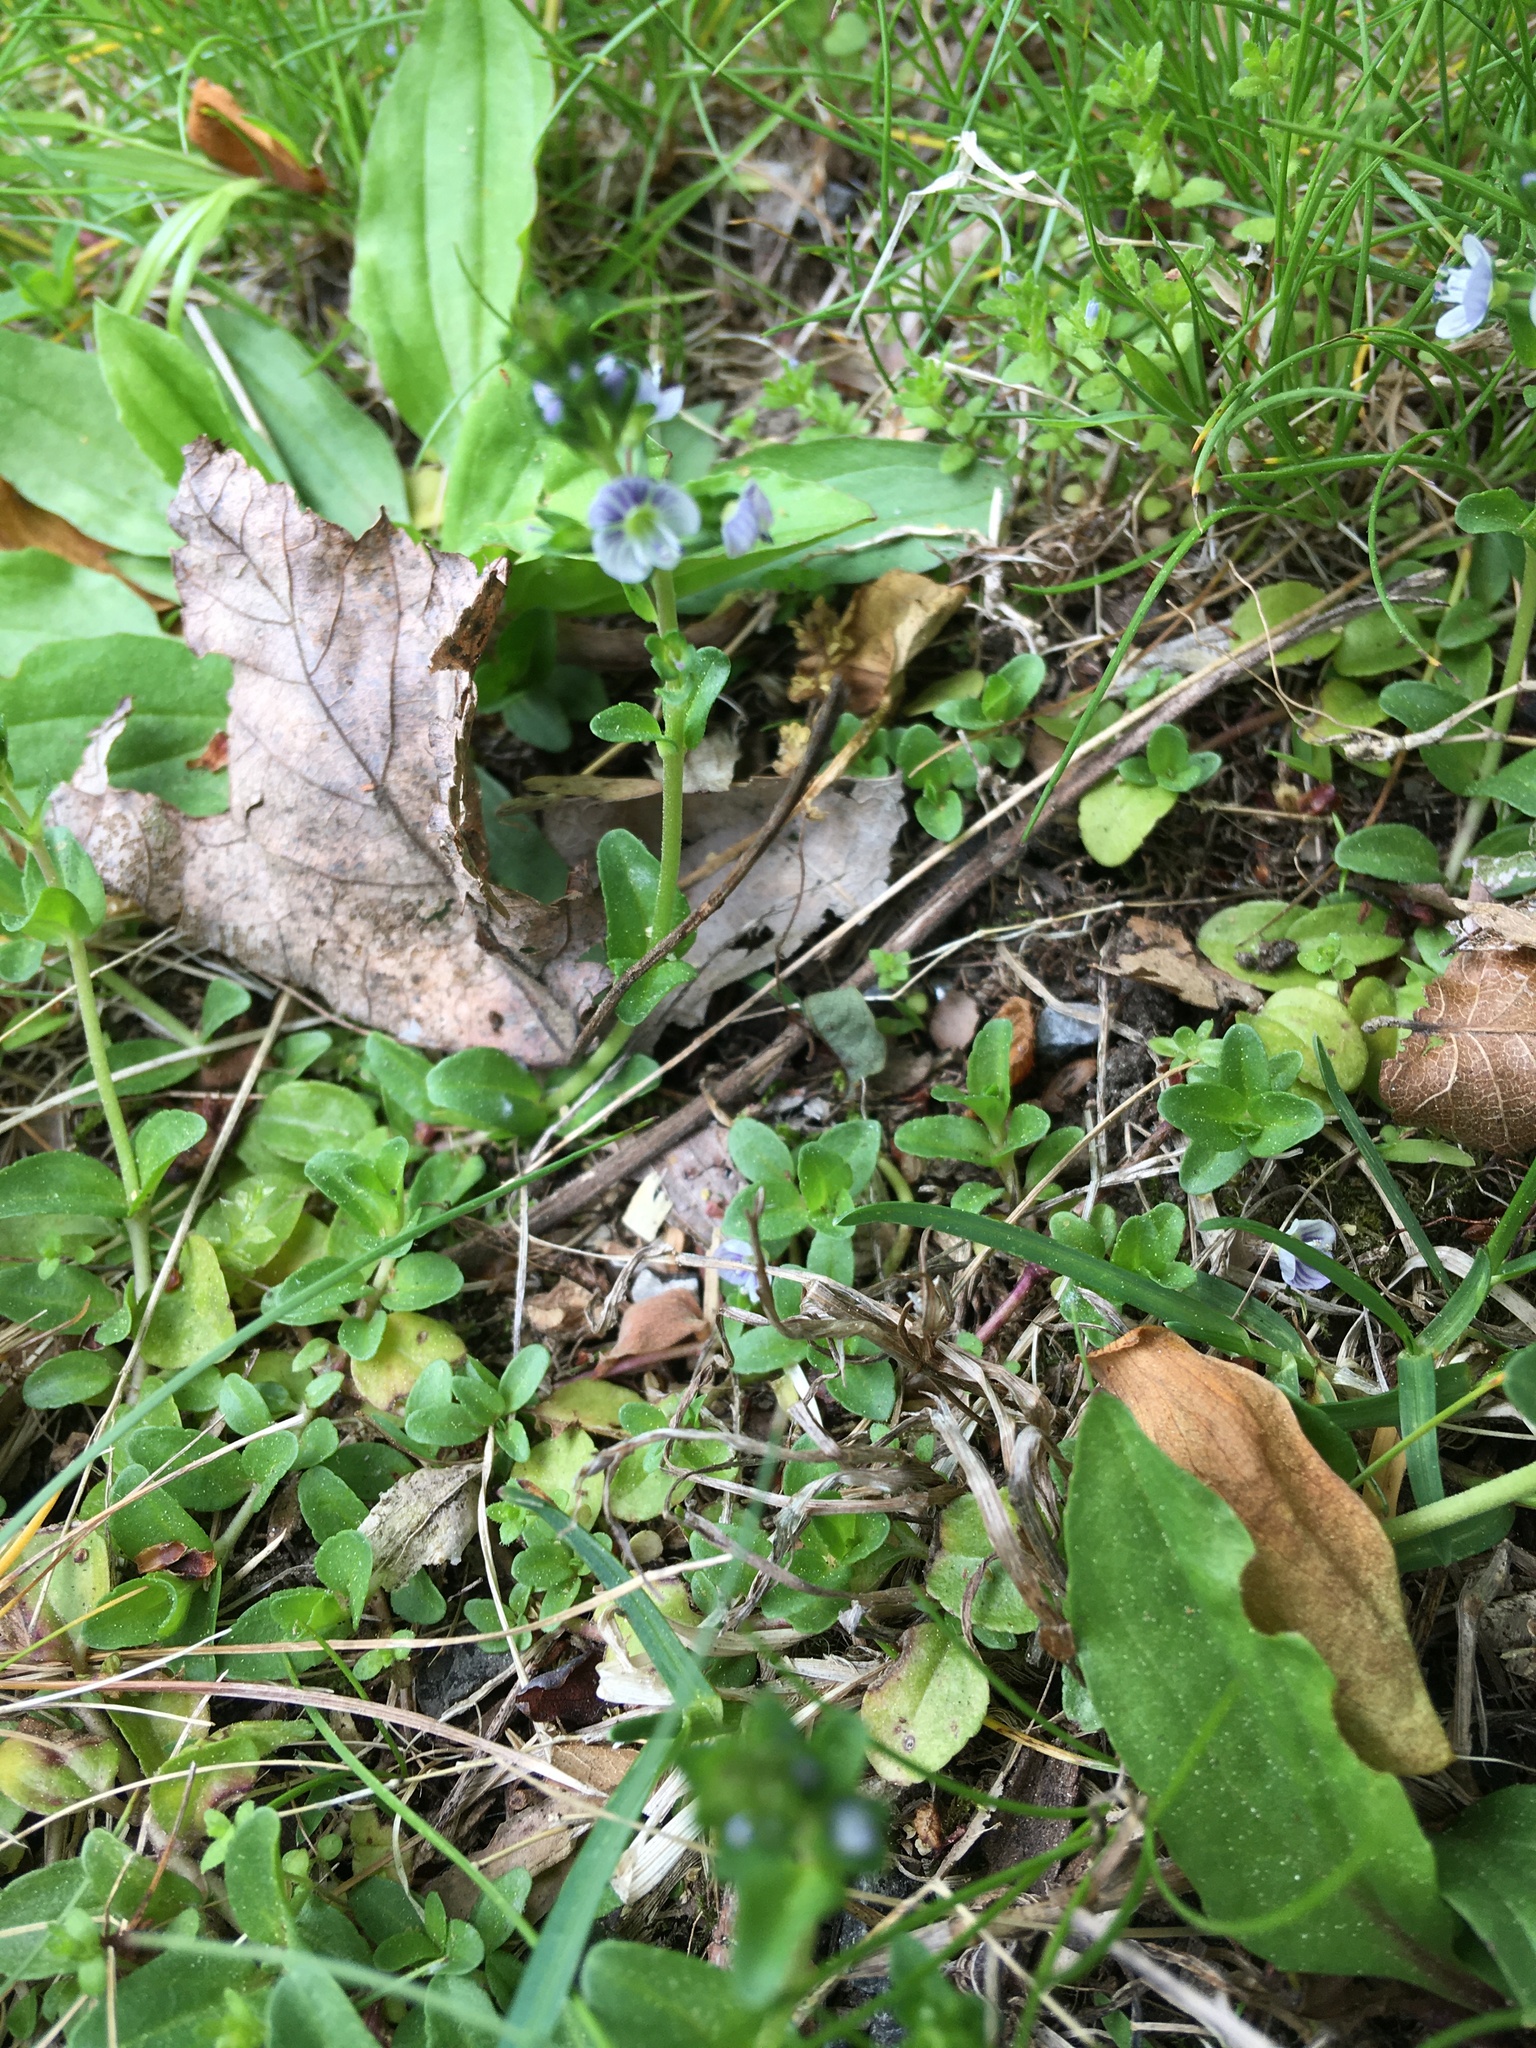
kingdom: Plantae
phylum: Tracheophyta
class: Magnoliopsida
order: Lamiales
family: Plantaginaceae
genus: Veronica
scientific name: Veronica serpyllifolia
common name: Thyme-leaved speedwell
